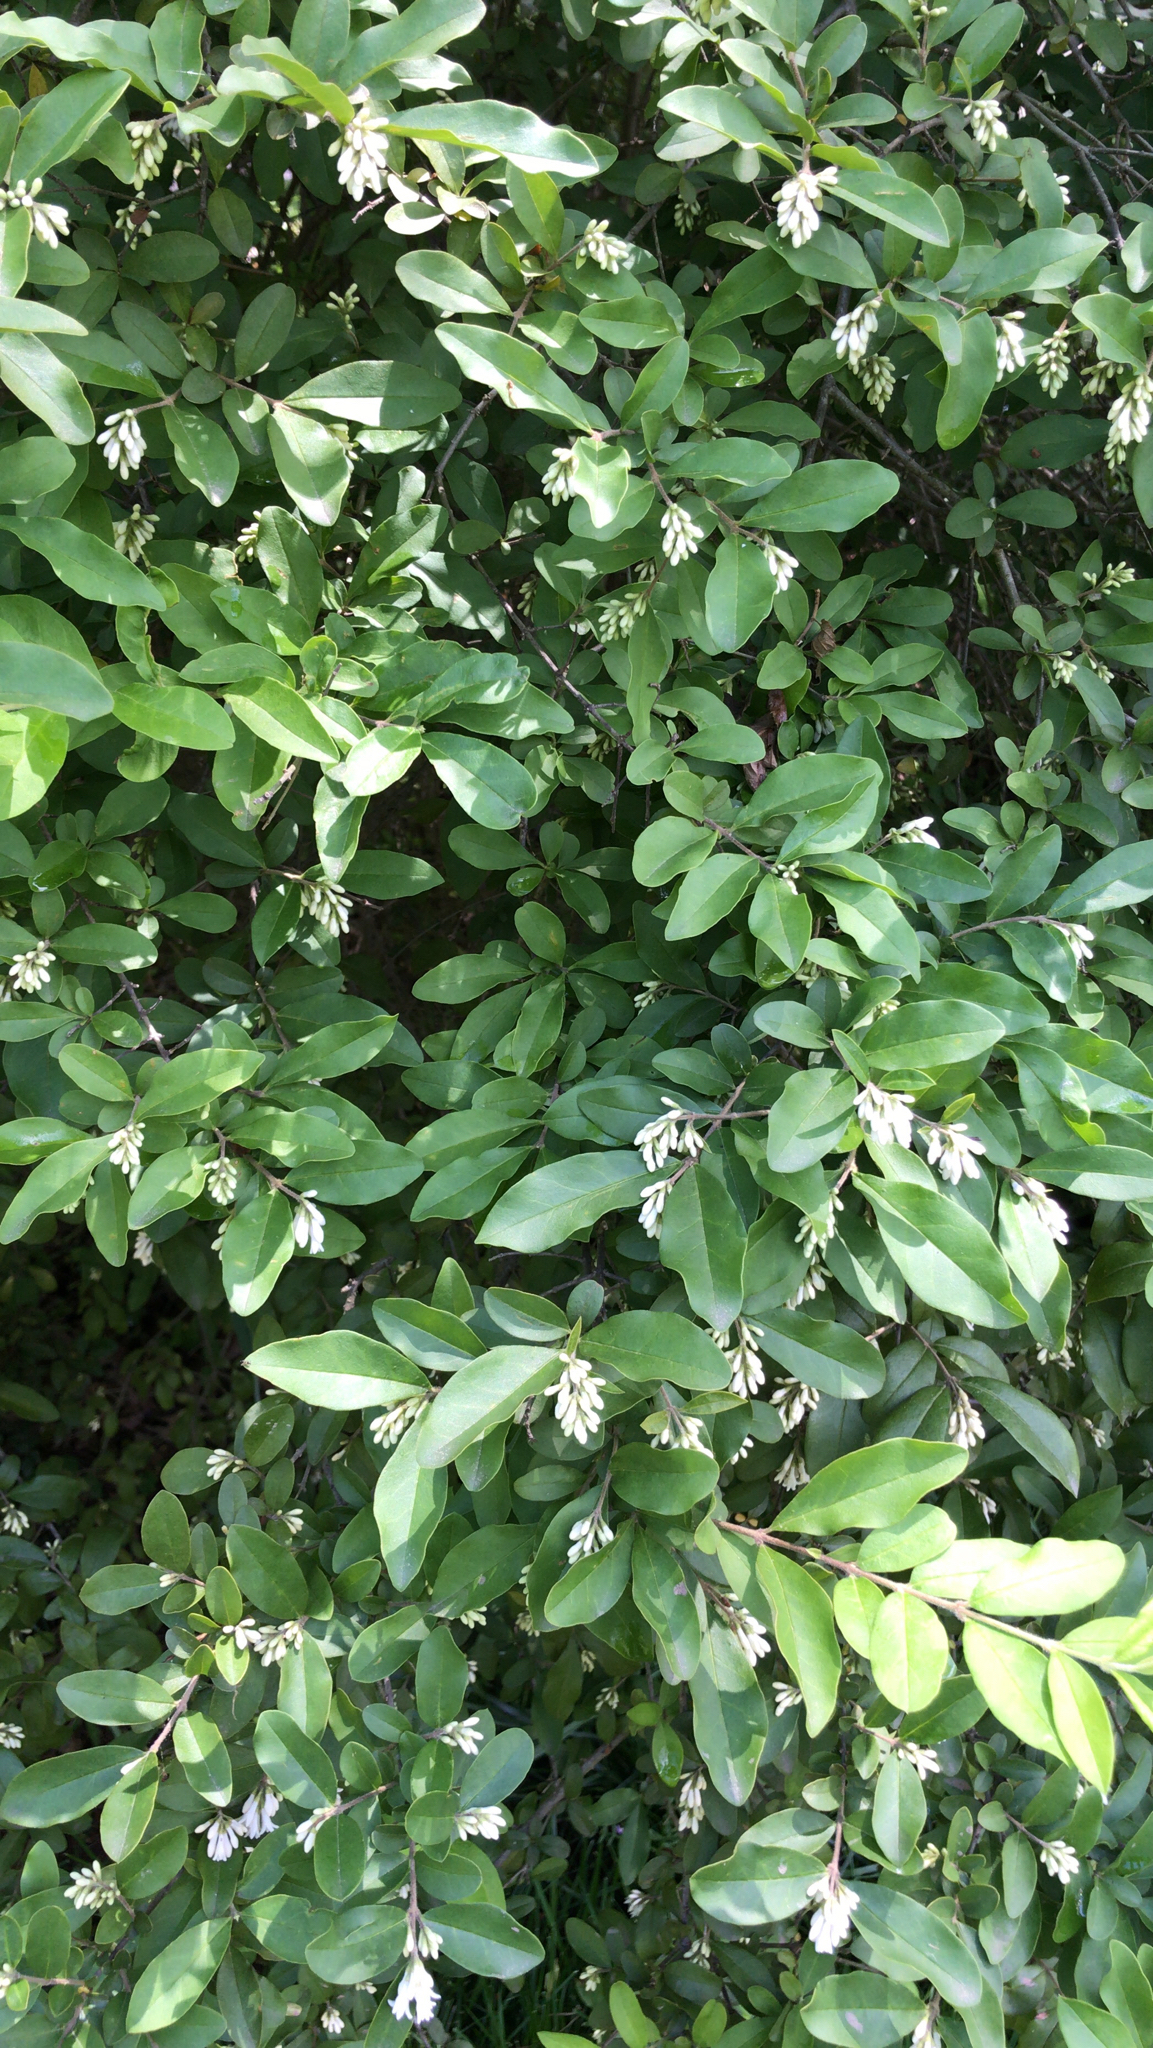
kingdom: Plantae
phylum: Tracheophyta
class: Magnoliopsida
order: Lamiales
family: Oleaceae
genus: Ligustrum
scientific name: Ligustrum obtusifolium
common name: Border privet
